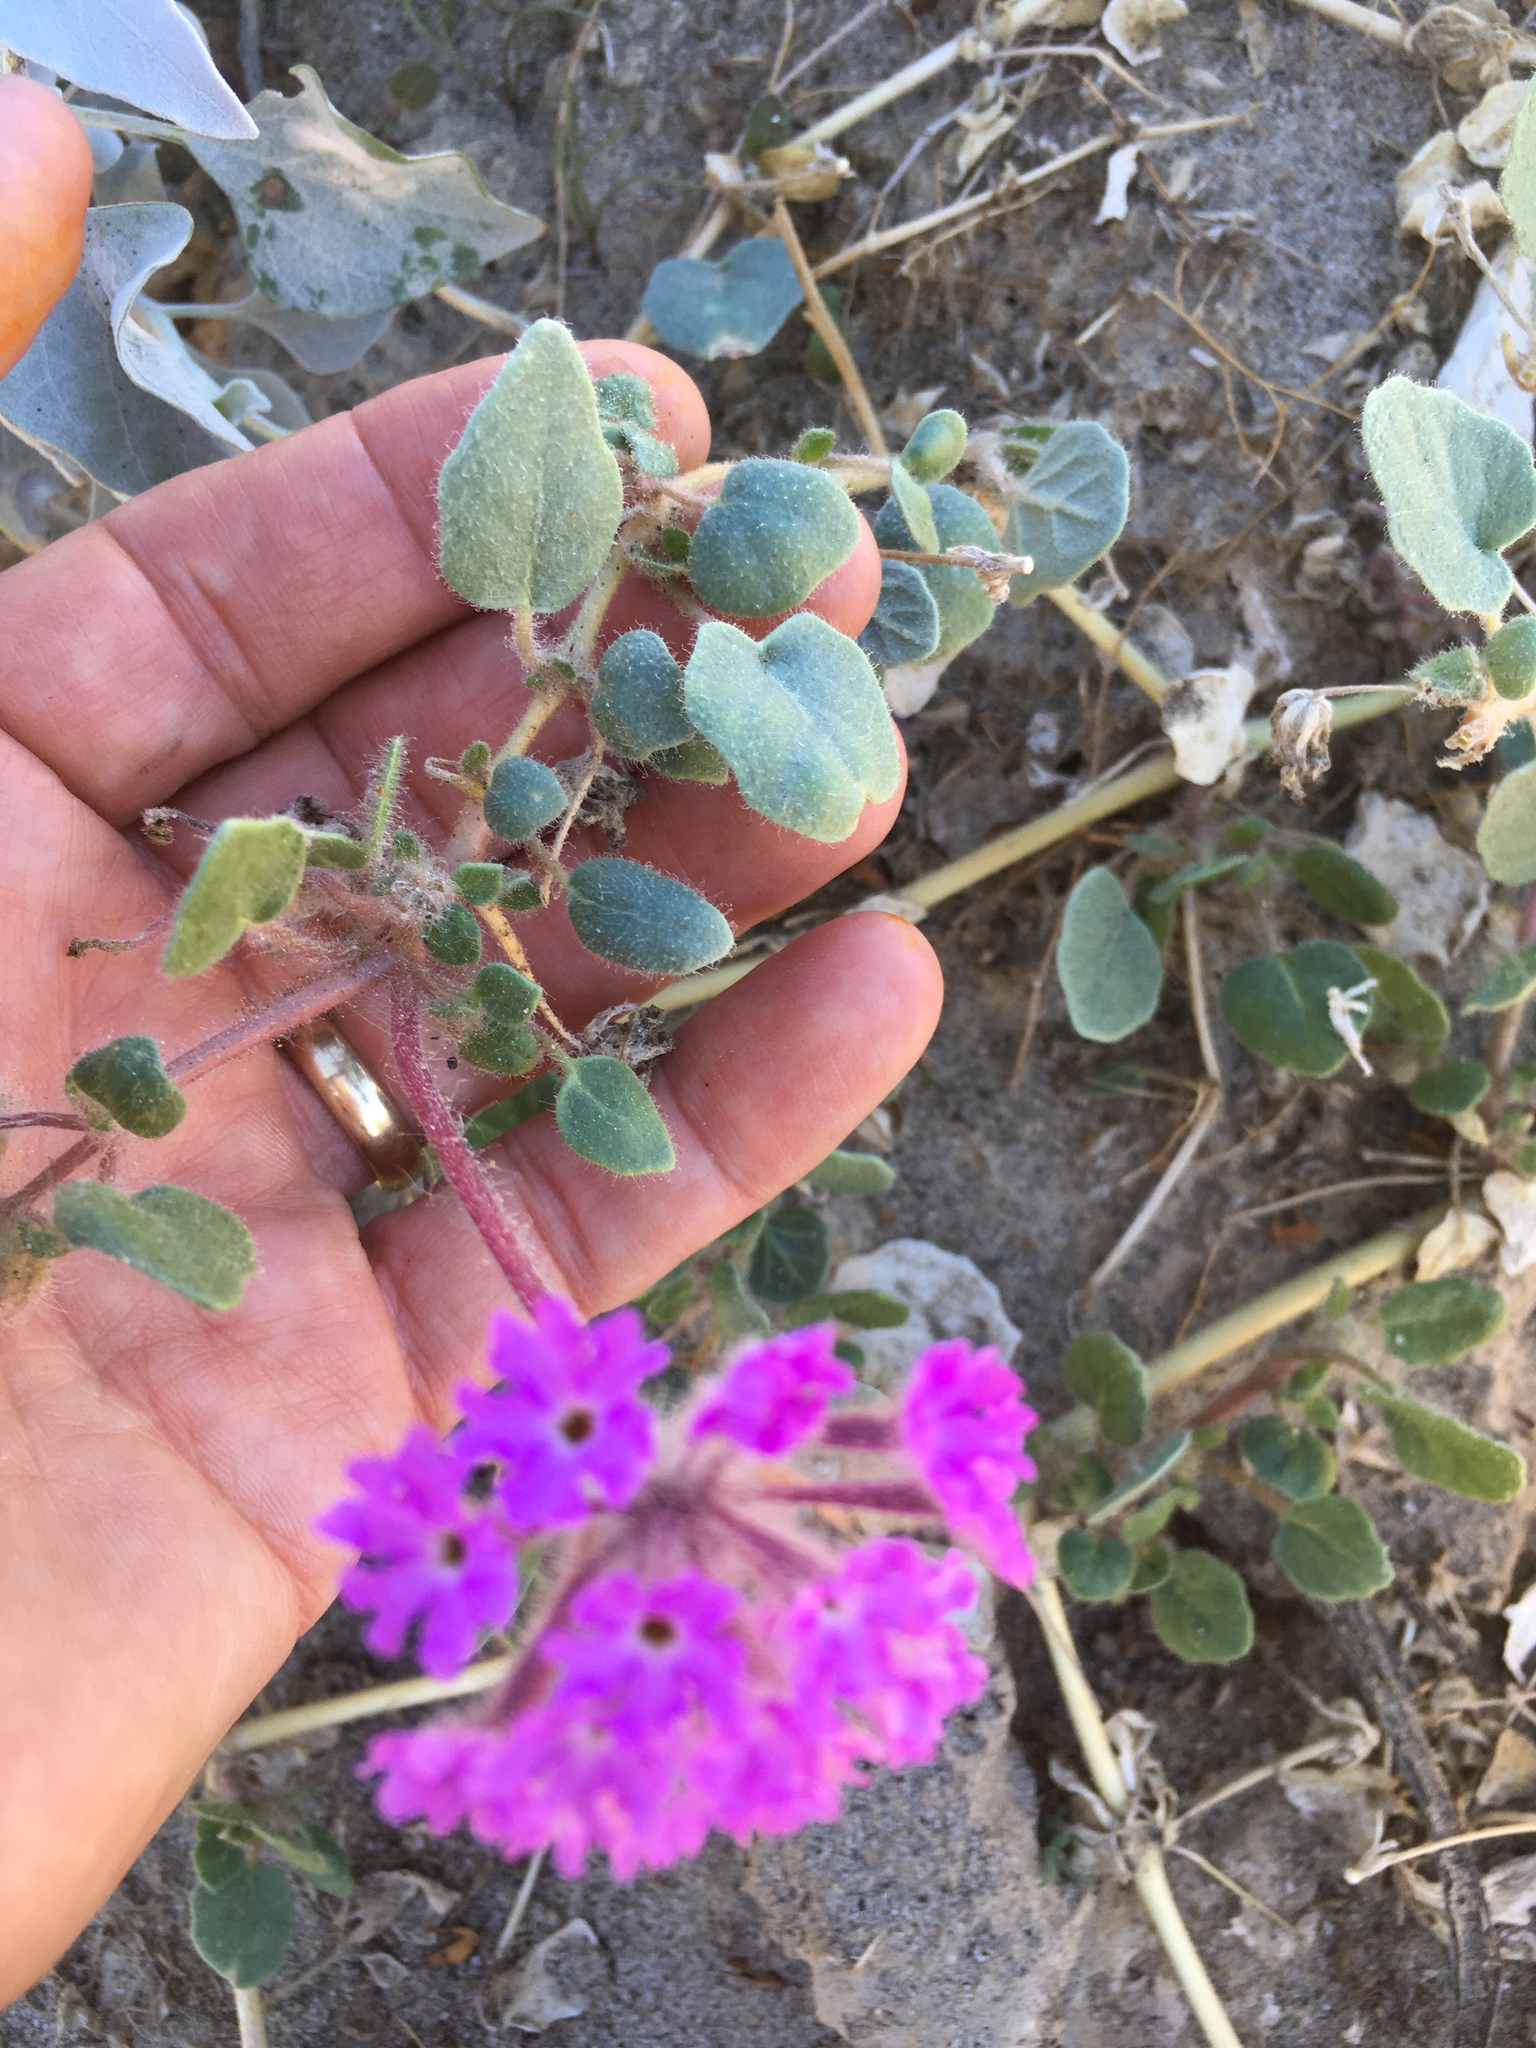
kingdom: Plantae
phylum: Tracheophyta
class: Magnoliopsida
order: Caryophyllales
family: Nyctaginaceae
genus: Abronia
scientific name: Abronia villosa
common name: Desert sand-verbena
